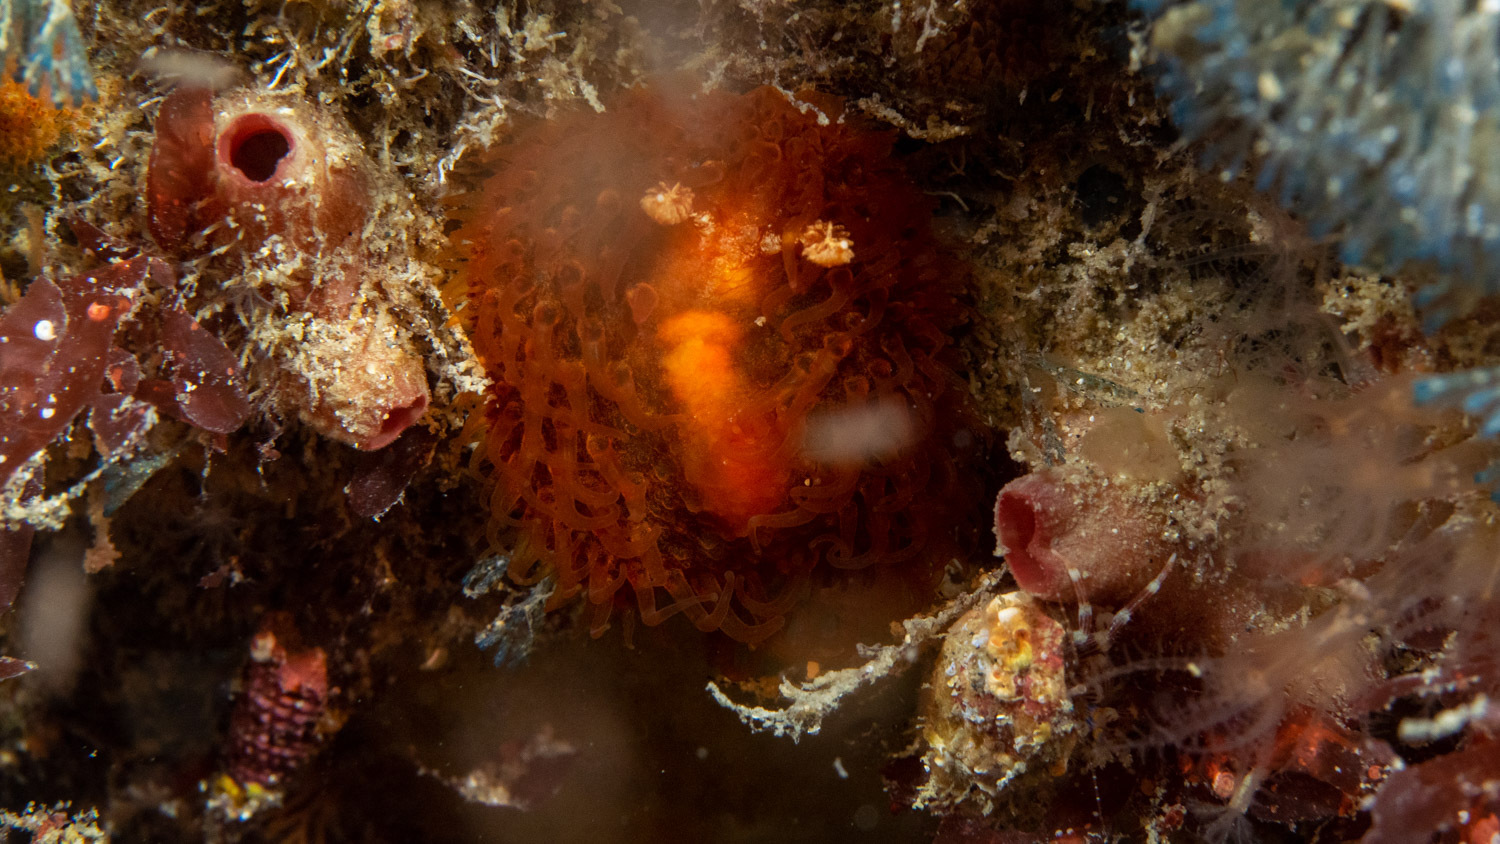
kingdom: Animalia
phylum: Mollusca
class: Gastropoda
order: Nudibranchia
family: Madrellidae
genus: Madrella
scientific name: Madrella ferruginosa
